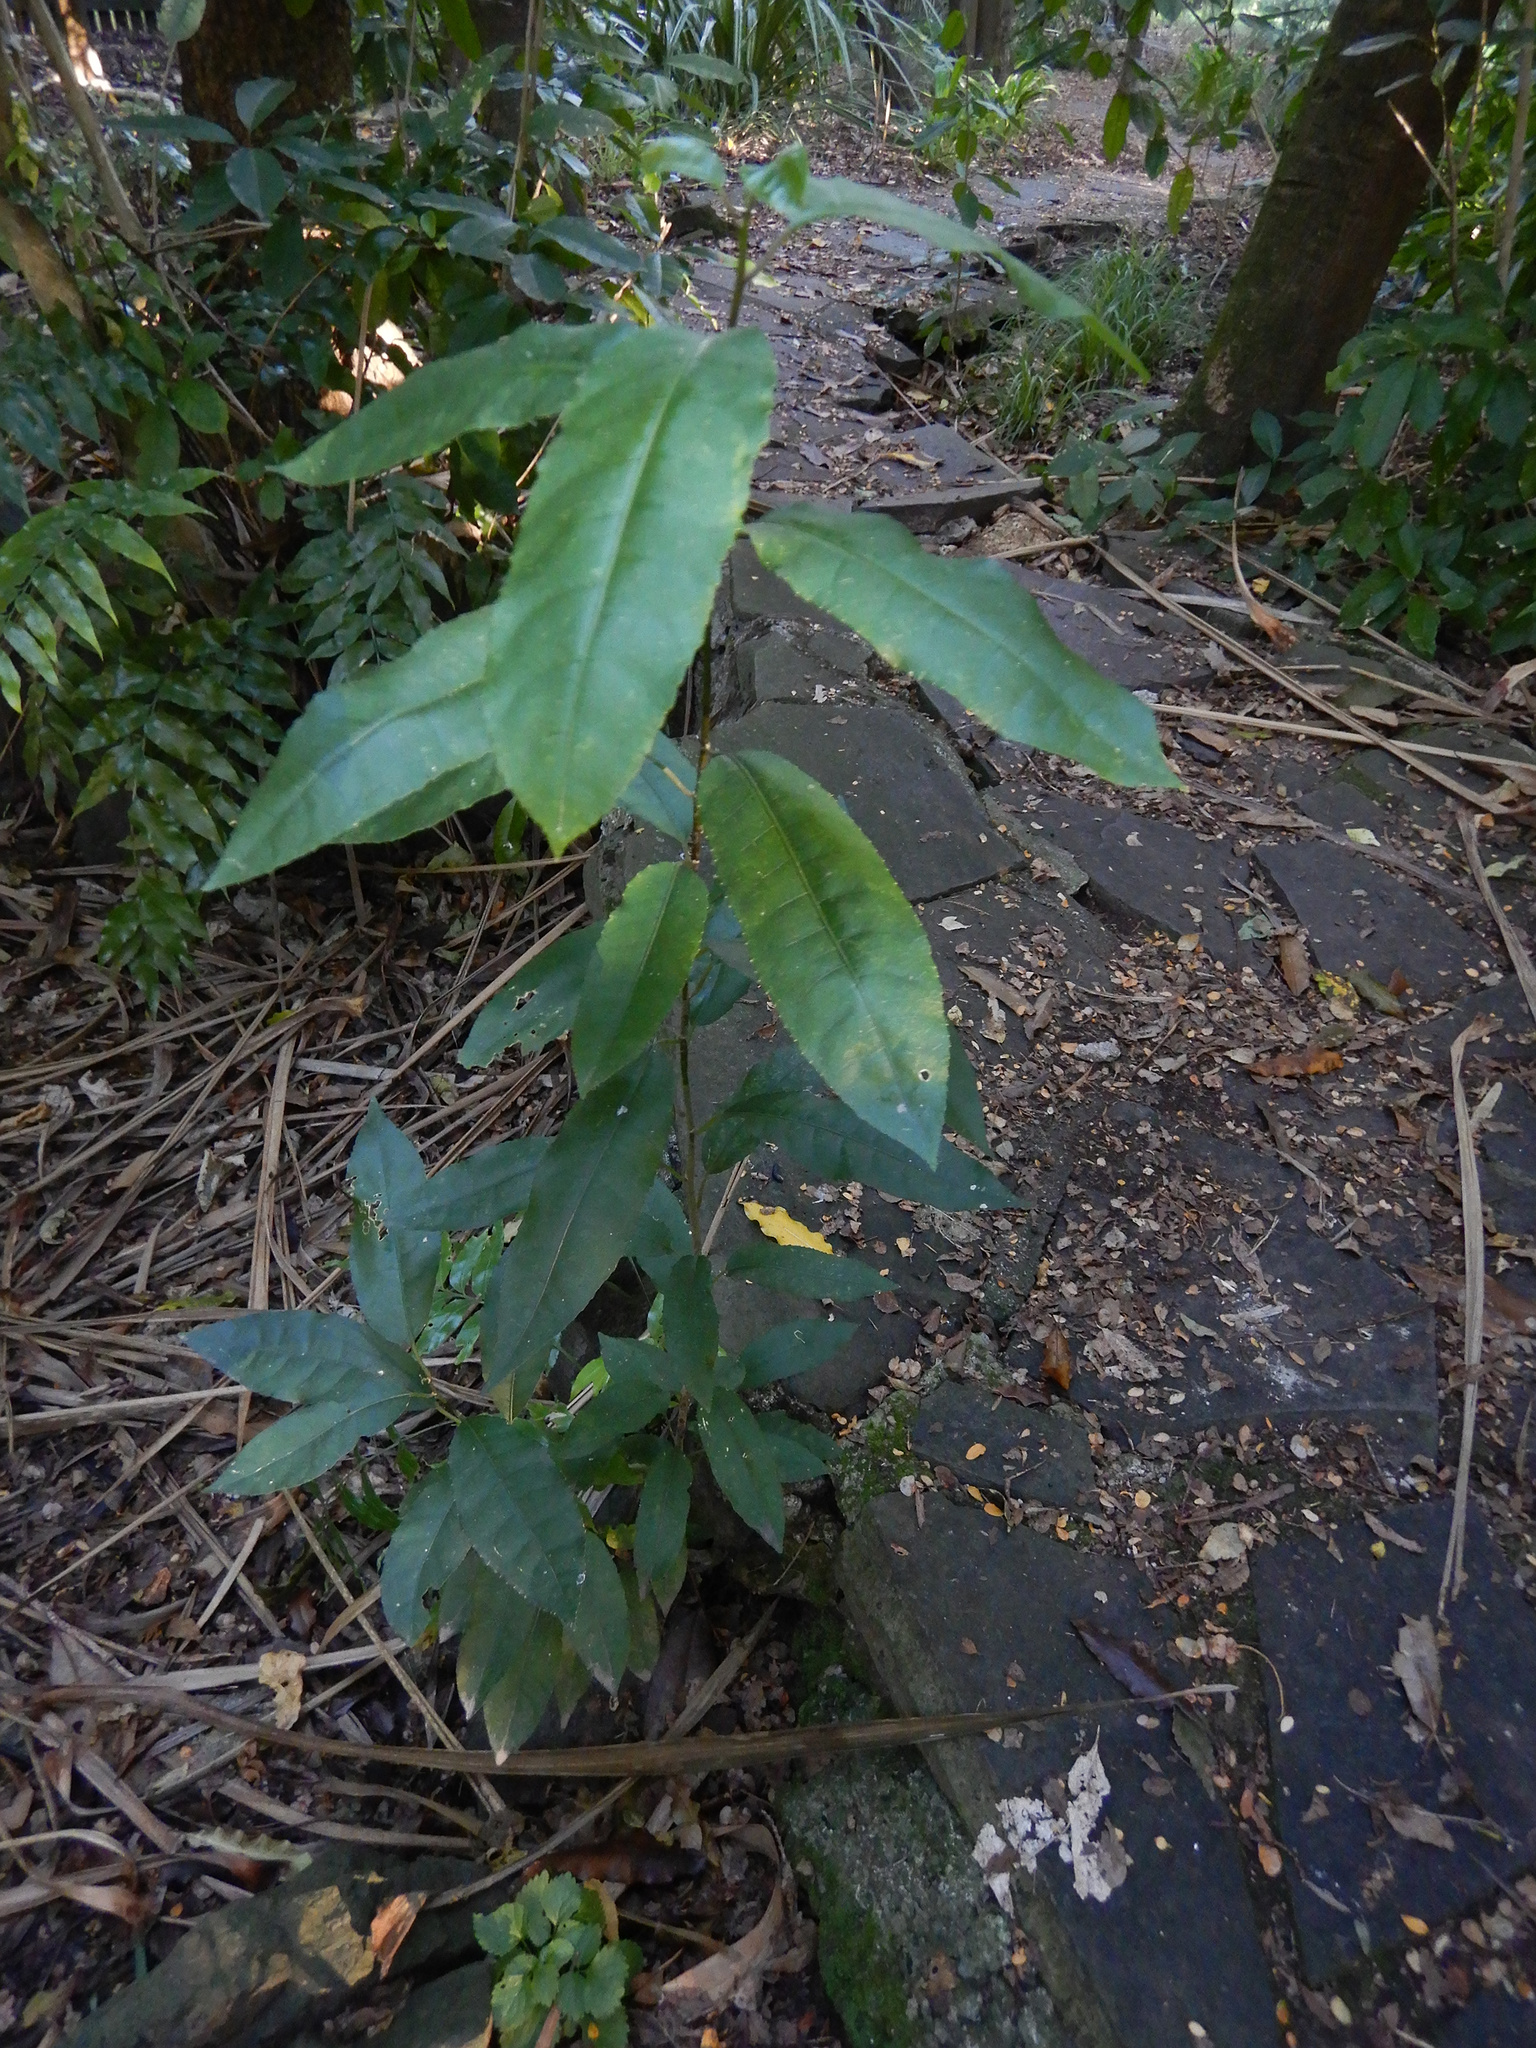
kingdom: Plantae
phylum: Tracheophyta
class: Magnoliopsida
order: Malpighiales
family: Violaceae
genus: Melicytus
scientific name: Melicytus ramiflorus
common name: Mahoe
